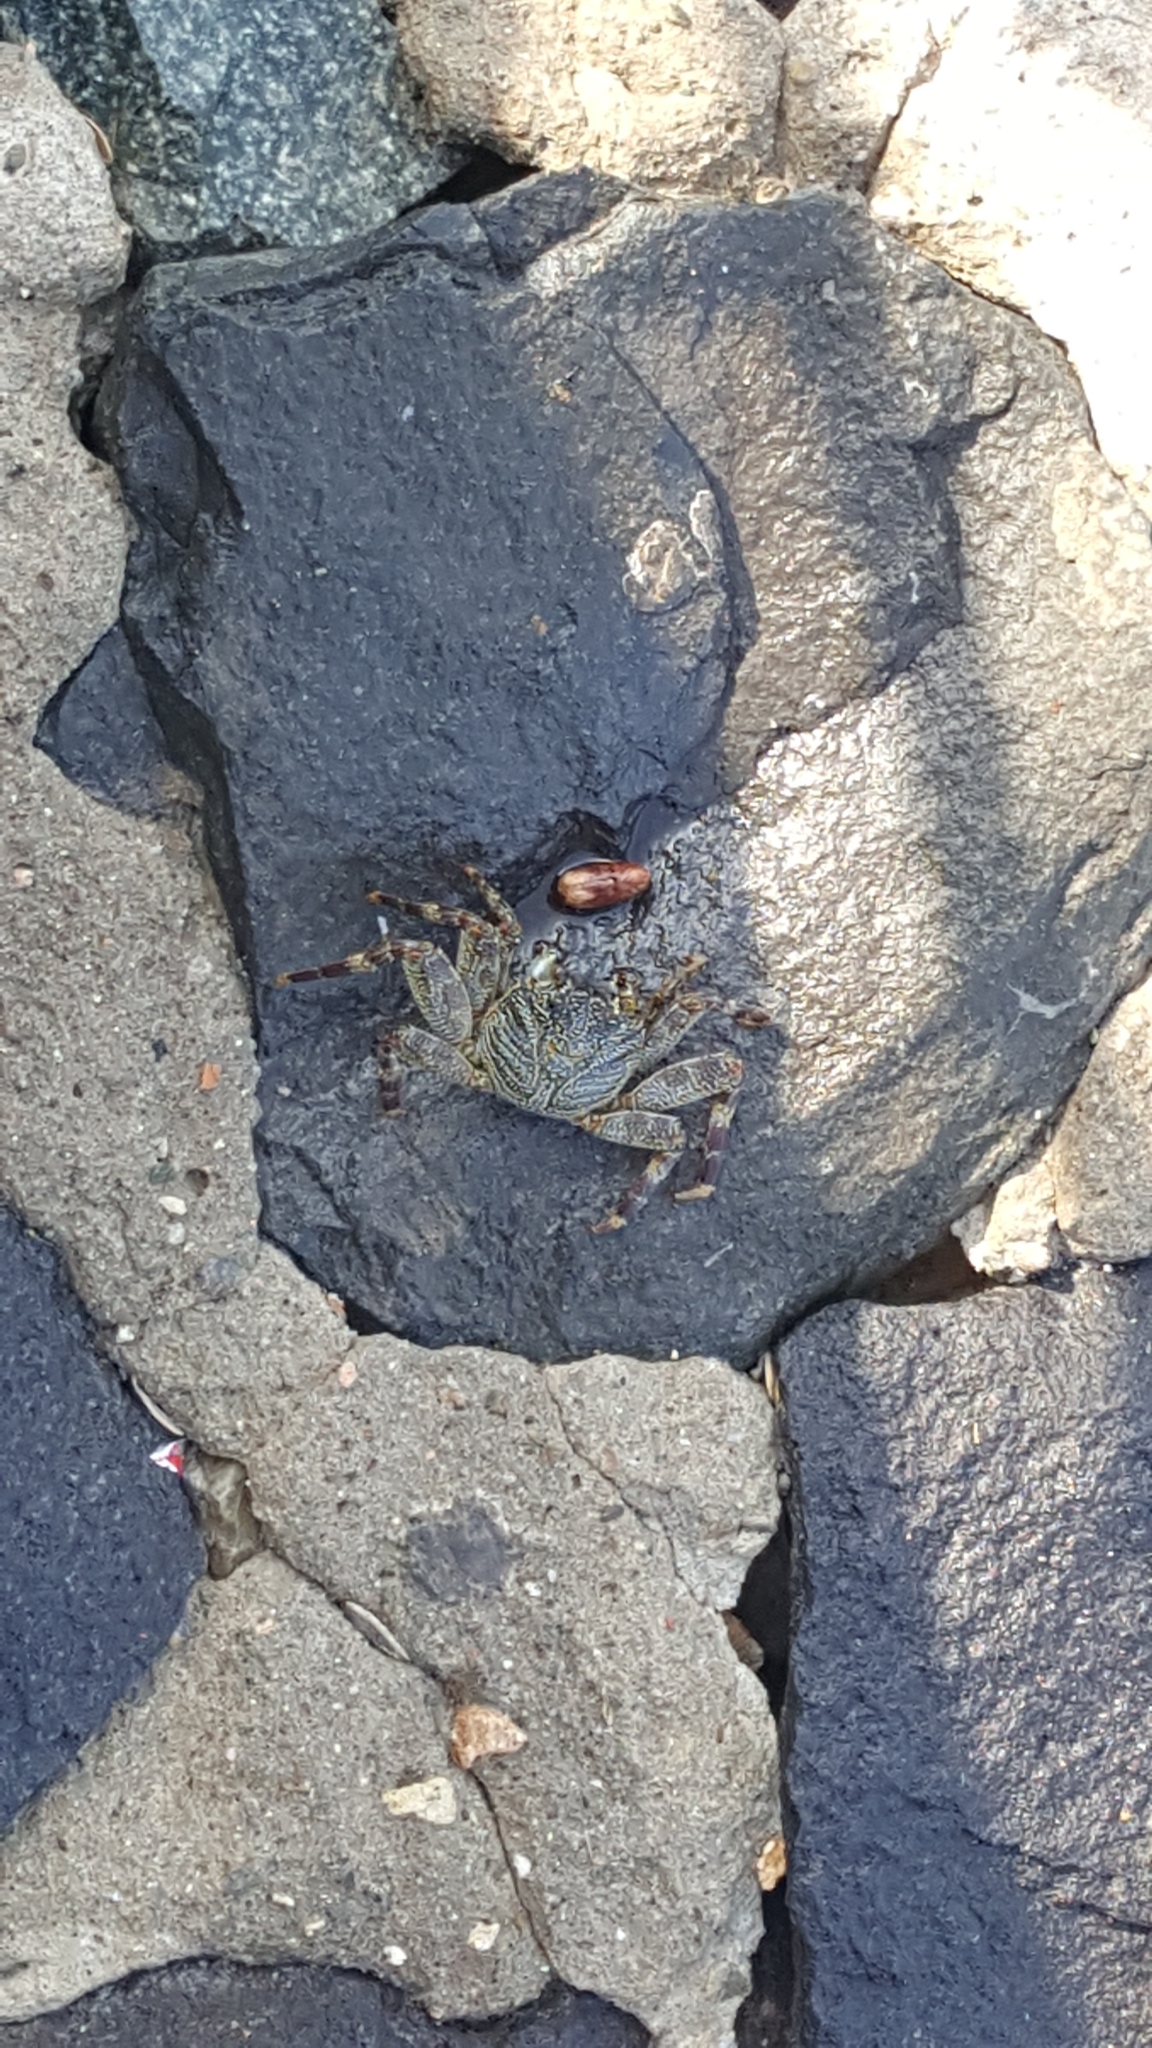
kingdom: Animalia
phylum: Arthropoda
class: Malacostraca
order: Decapoda
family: Grapsidae
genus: Grapsus
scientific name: Grapsus albolineatus
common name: Mottled lightfoot crab
